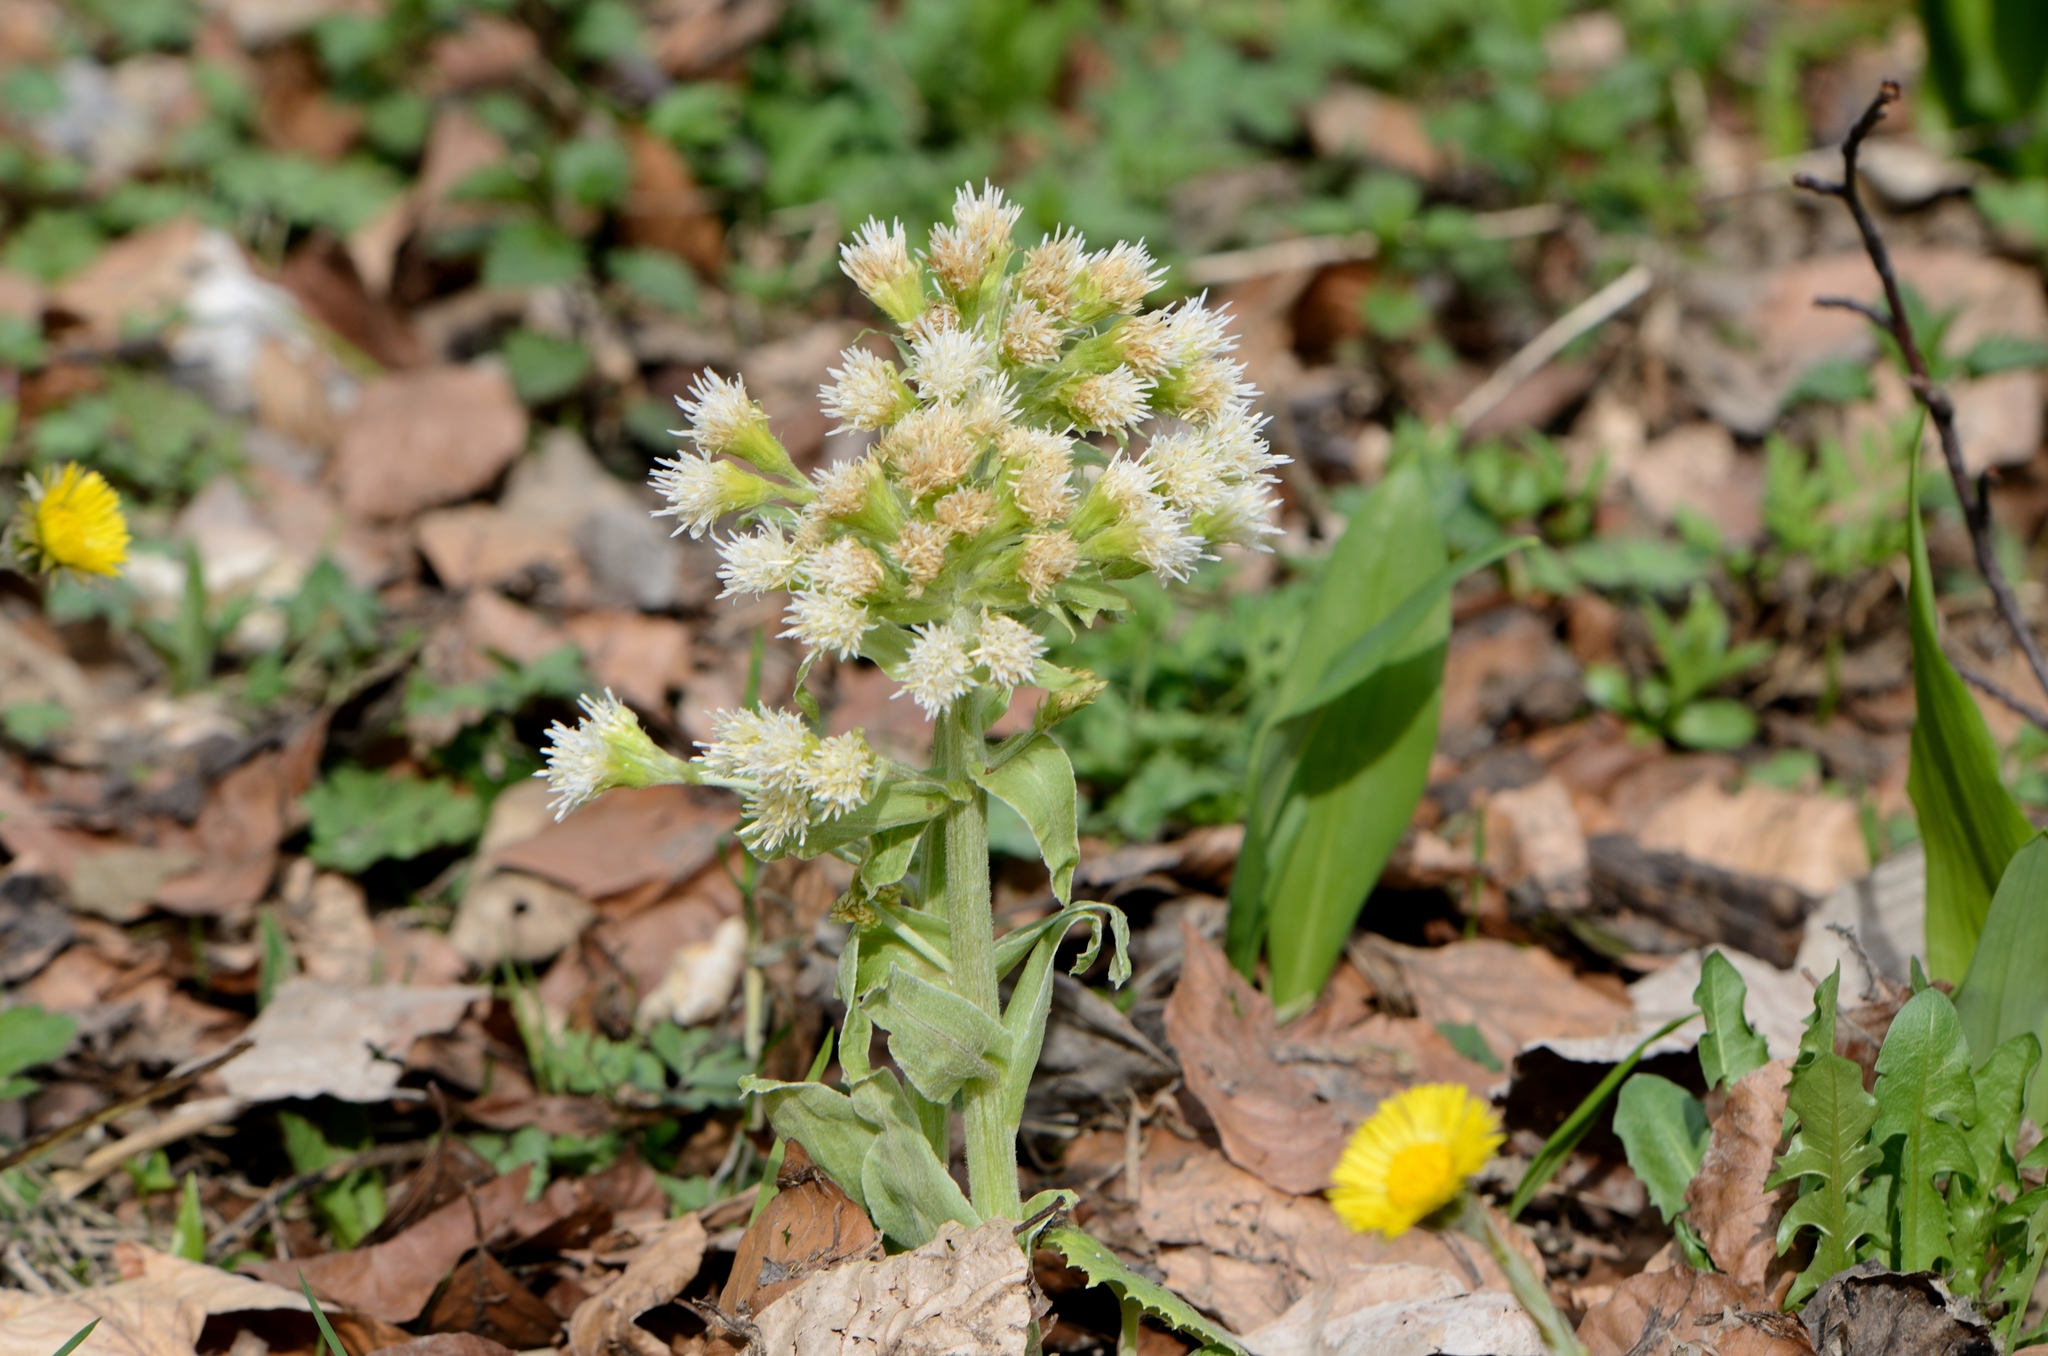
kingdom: Plantae
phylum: Tracheophyta
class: Magnoliopsida
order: Asterales
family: Asteraceae
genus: Petasites
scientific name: Petasites albus
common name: White butterbur
